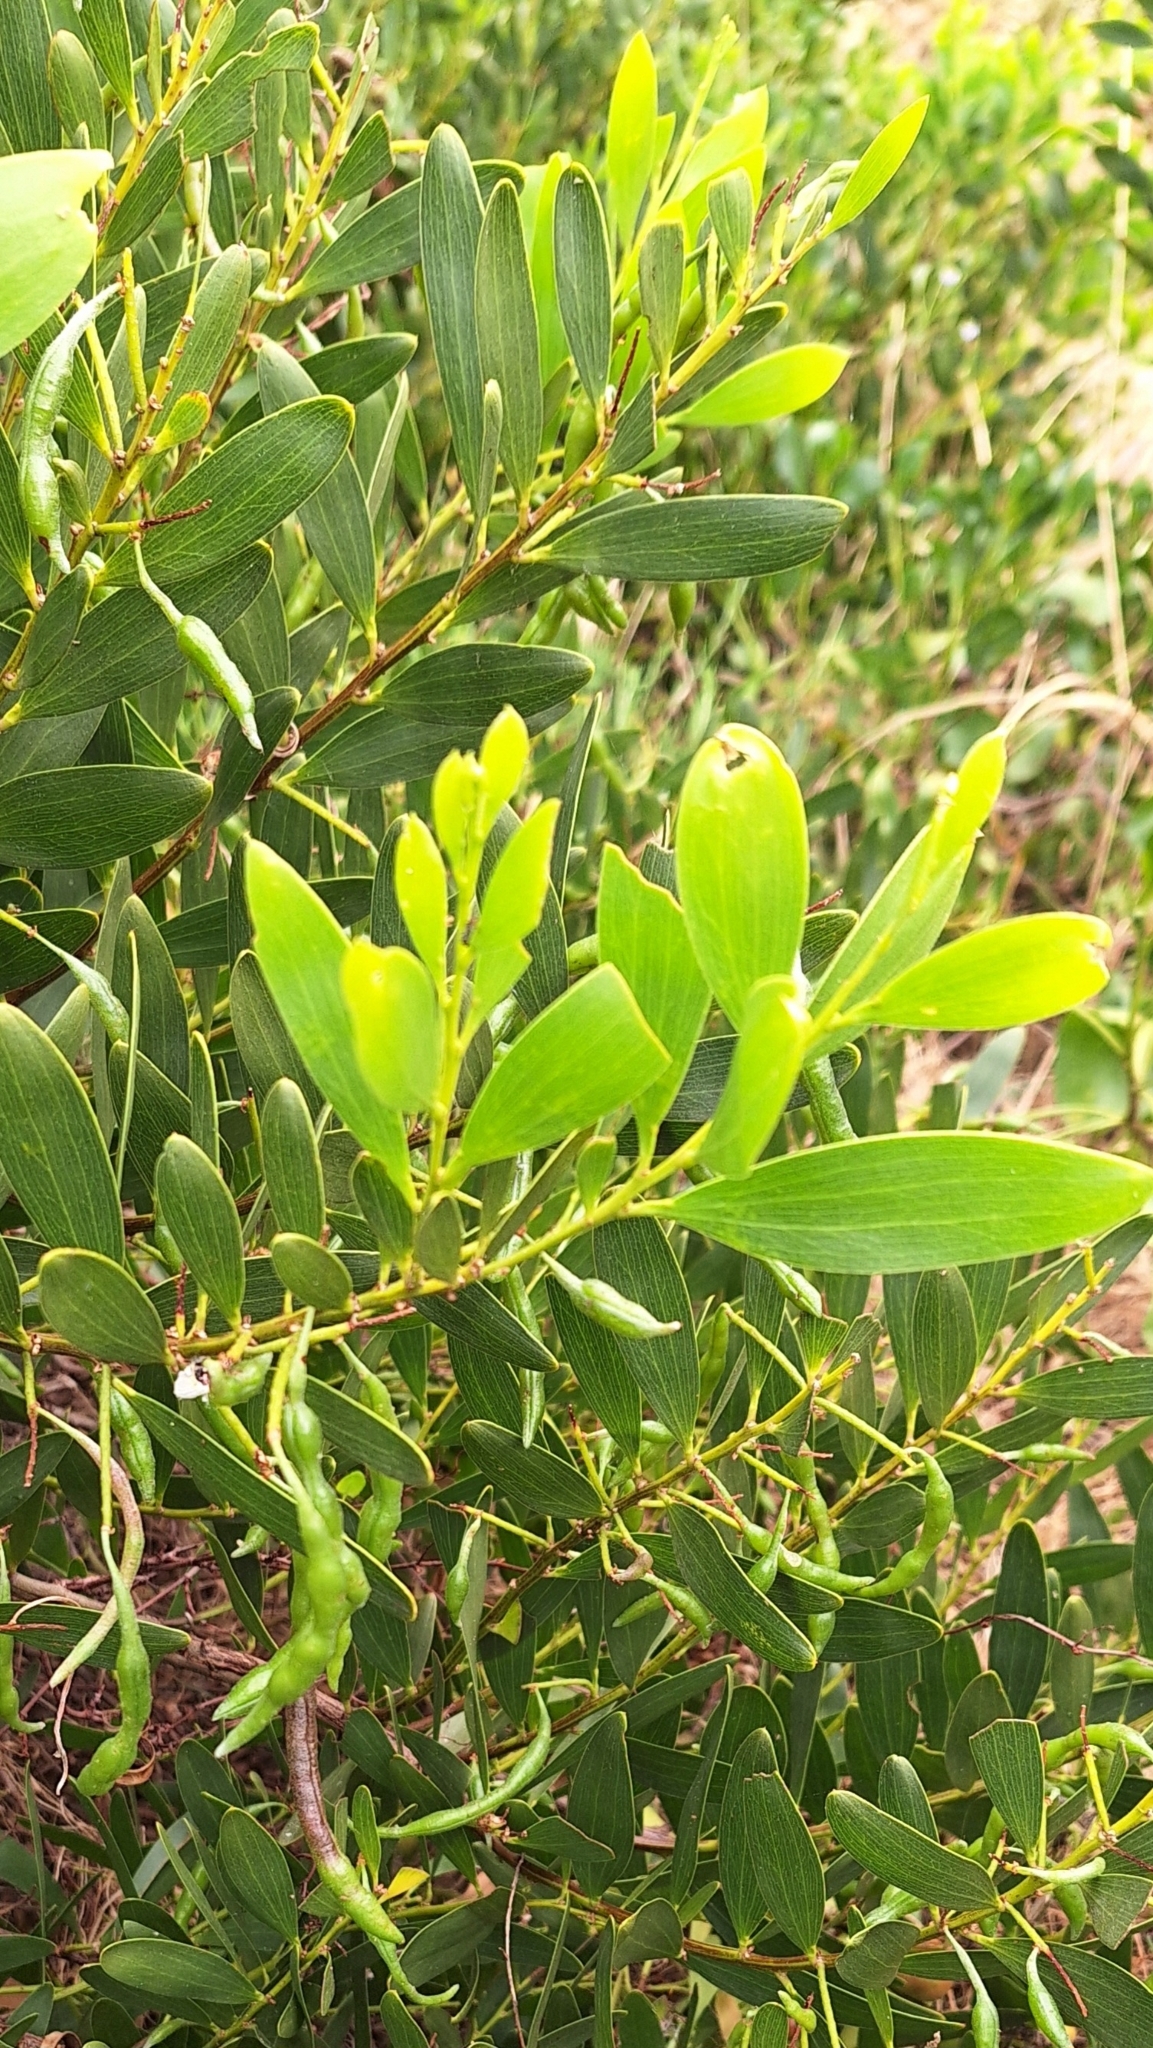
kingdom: Plantae
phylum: Tracheophyta
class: Magnoliopsida
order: Fabales
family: Fabaceae
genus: Acacia
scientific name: Acacia longifolia
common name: Sydney golden wattle
